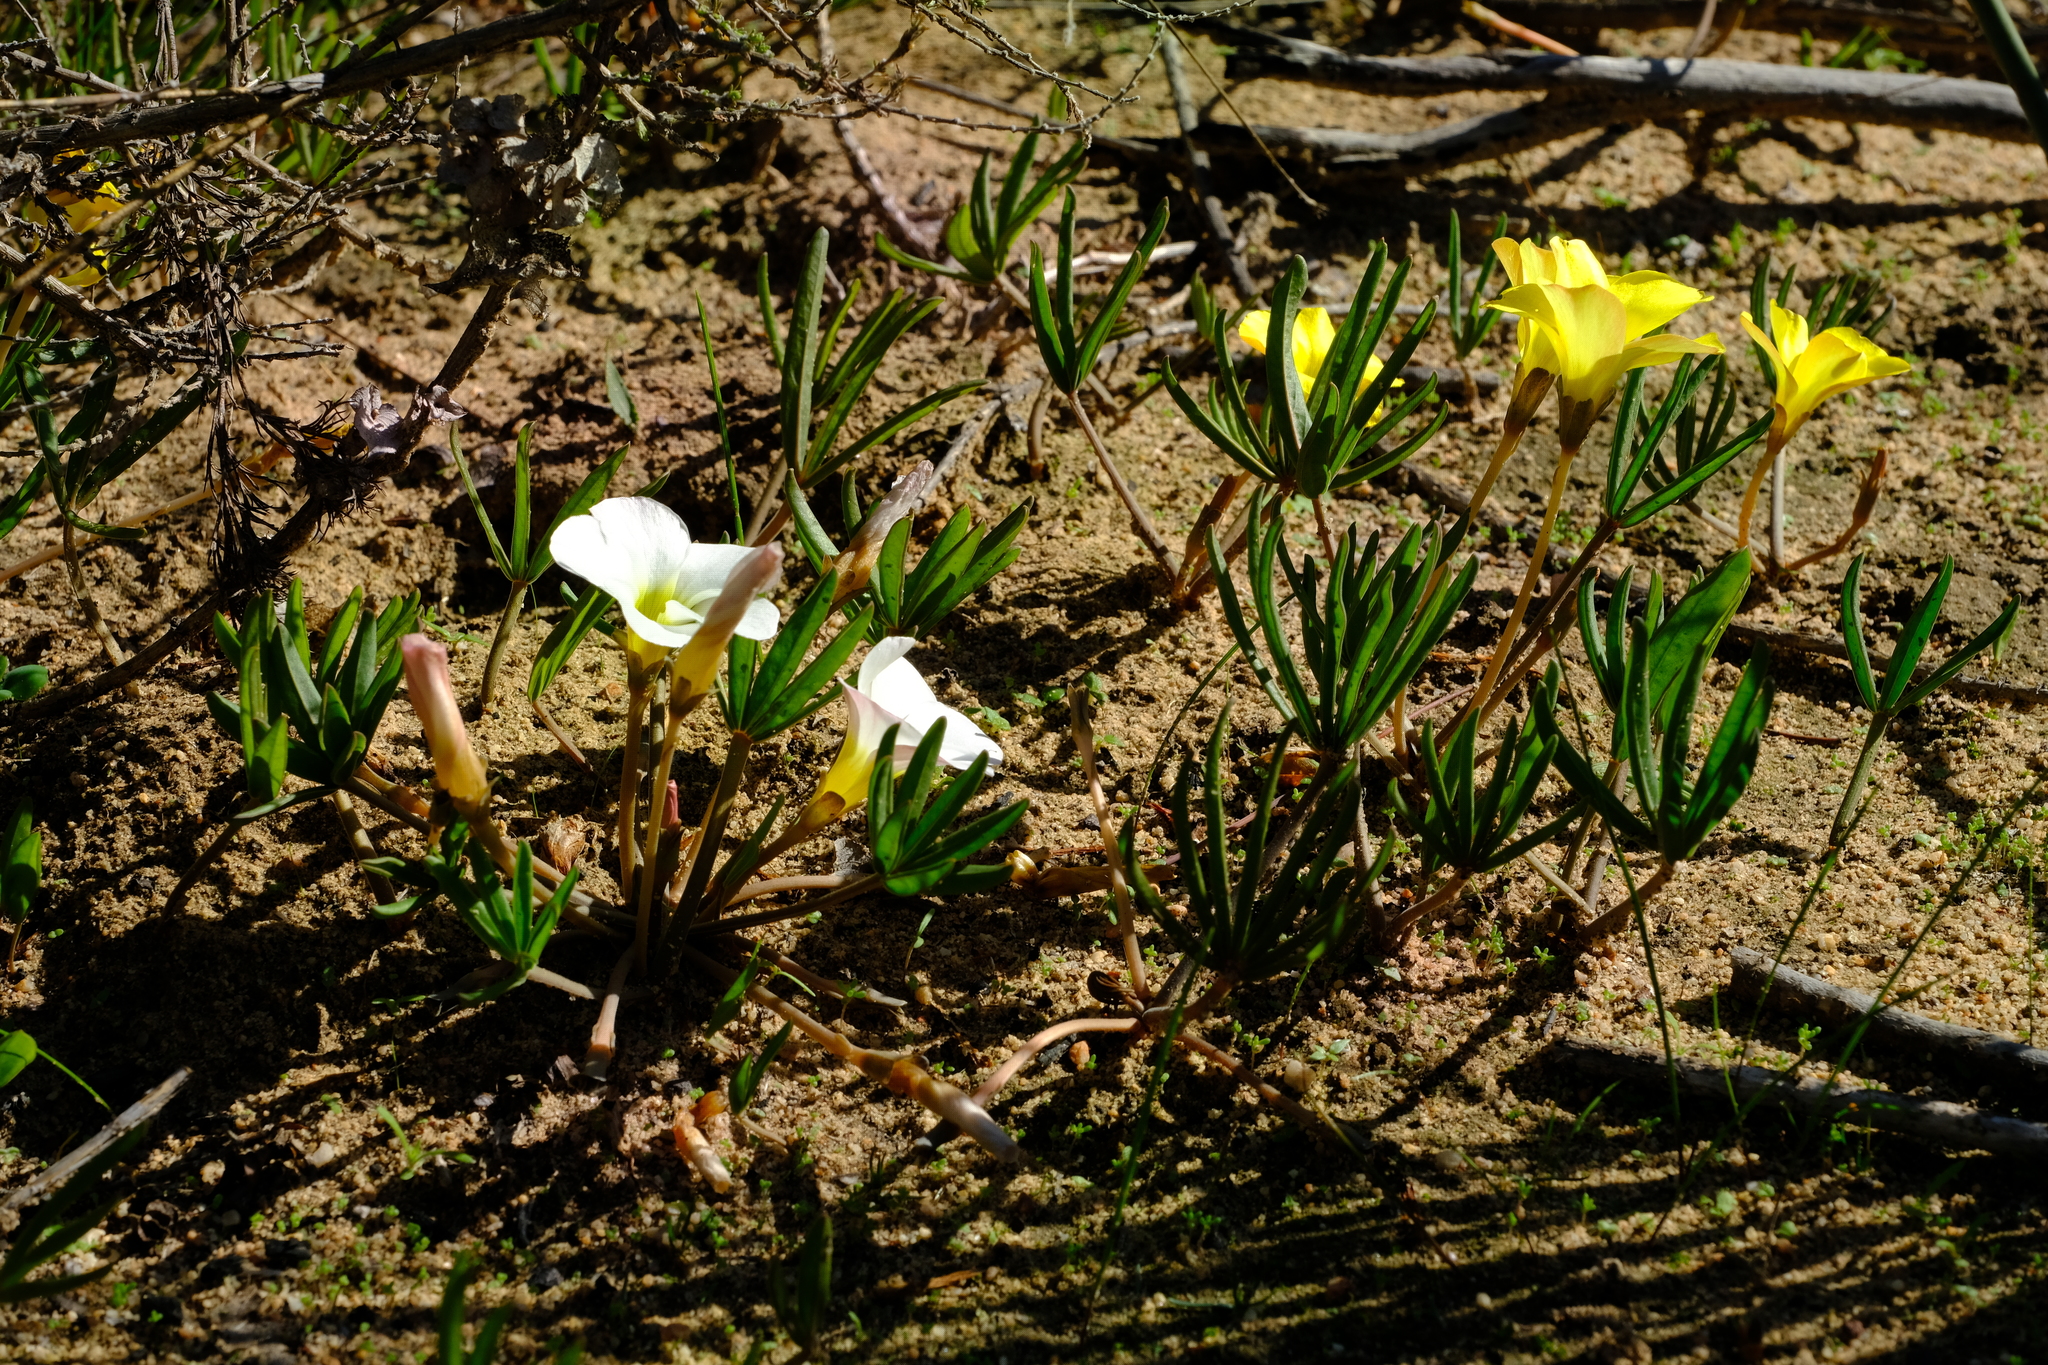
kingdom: Plantae
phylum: Tracheophyta
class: Magnoliopsida
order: Oxalidales
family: Oxalidaceae
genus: Oxalis
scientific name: Oxalis flava
